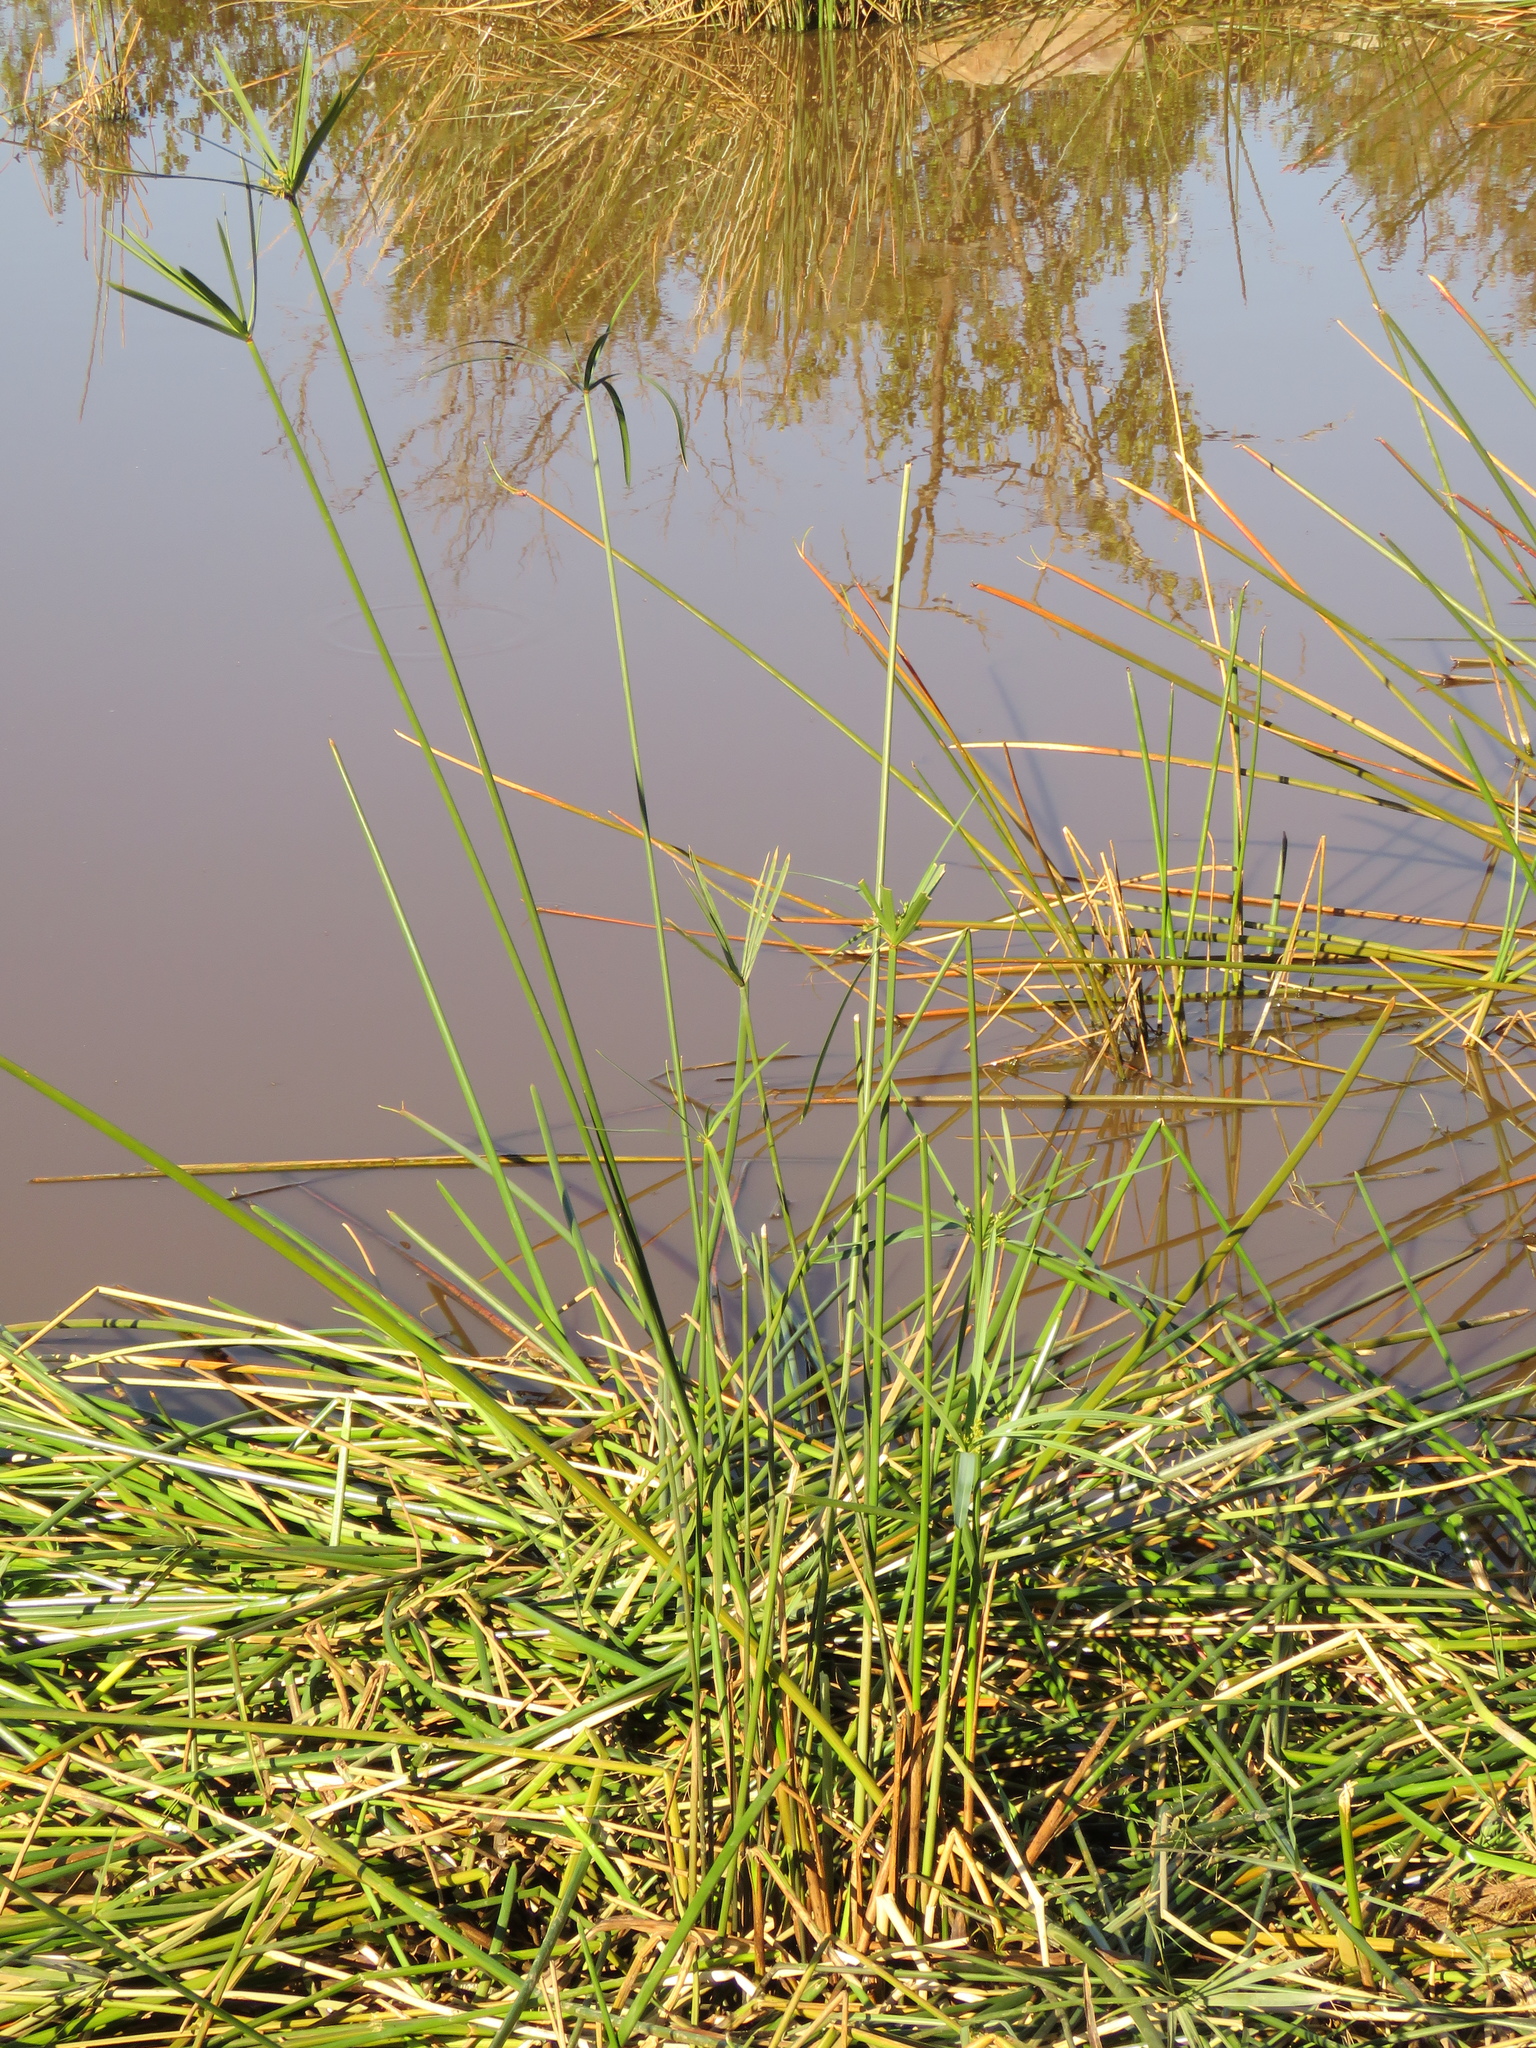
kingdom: Plantae
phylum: Tracheophyta
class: Liliopsida
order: Poales
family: Cyperaceae
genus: Cyperus
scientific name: Cyperus textilis
